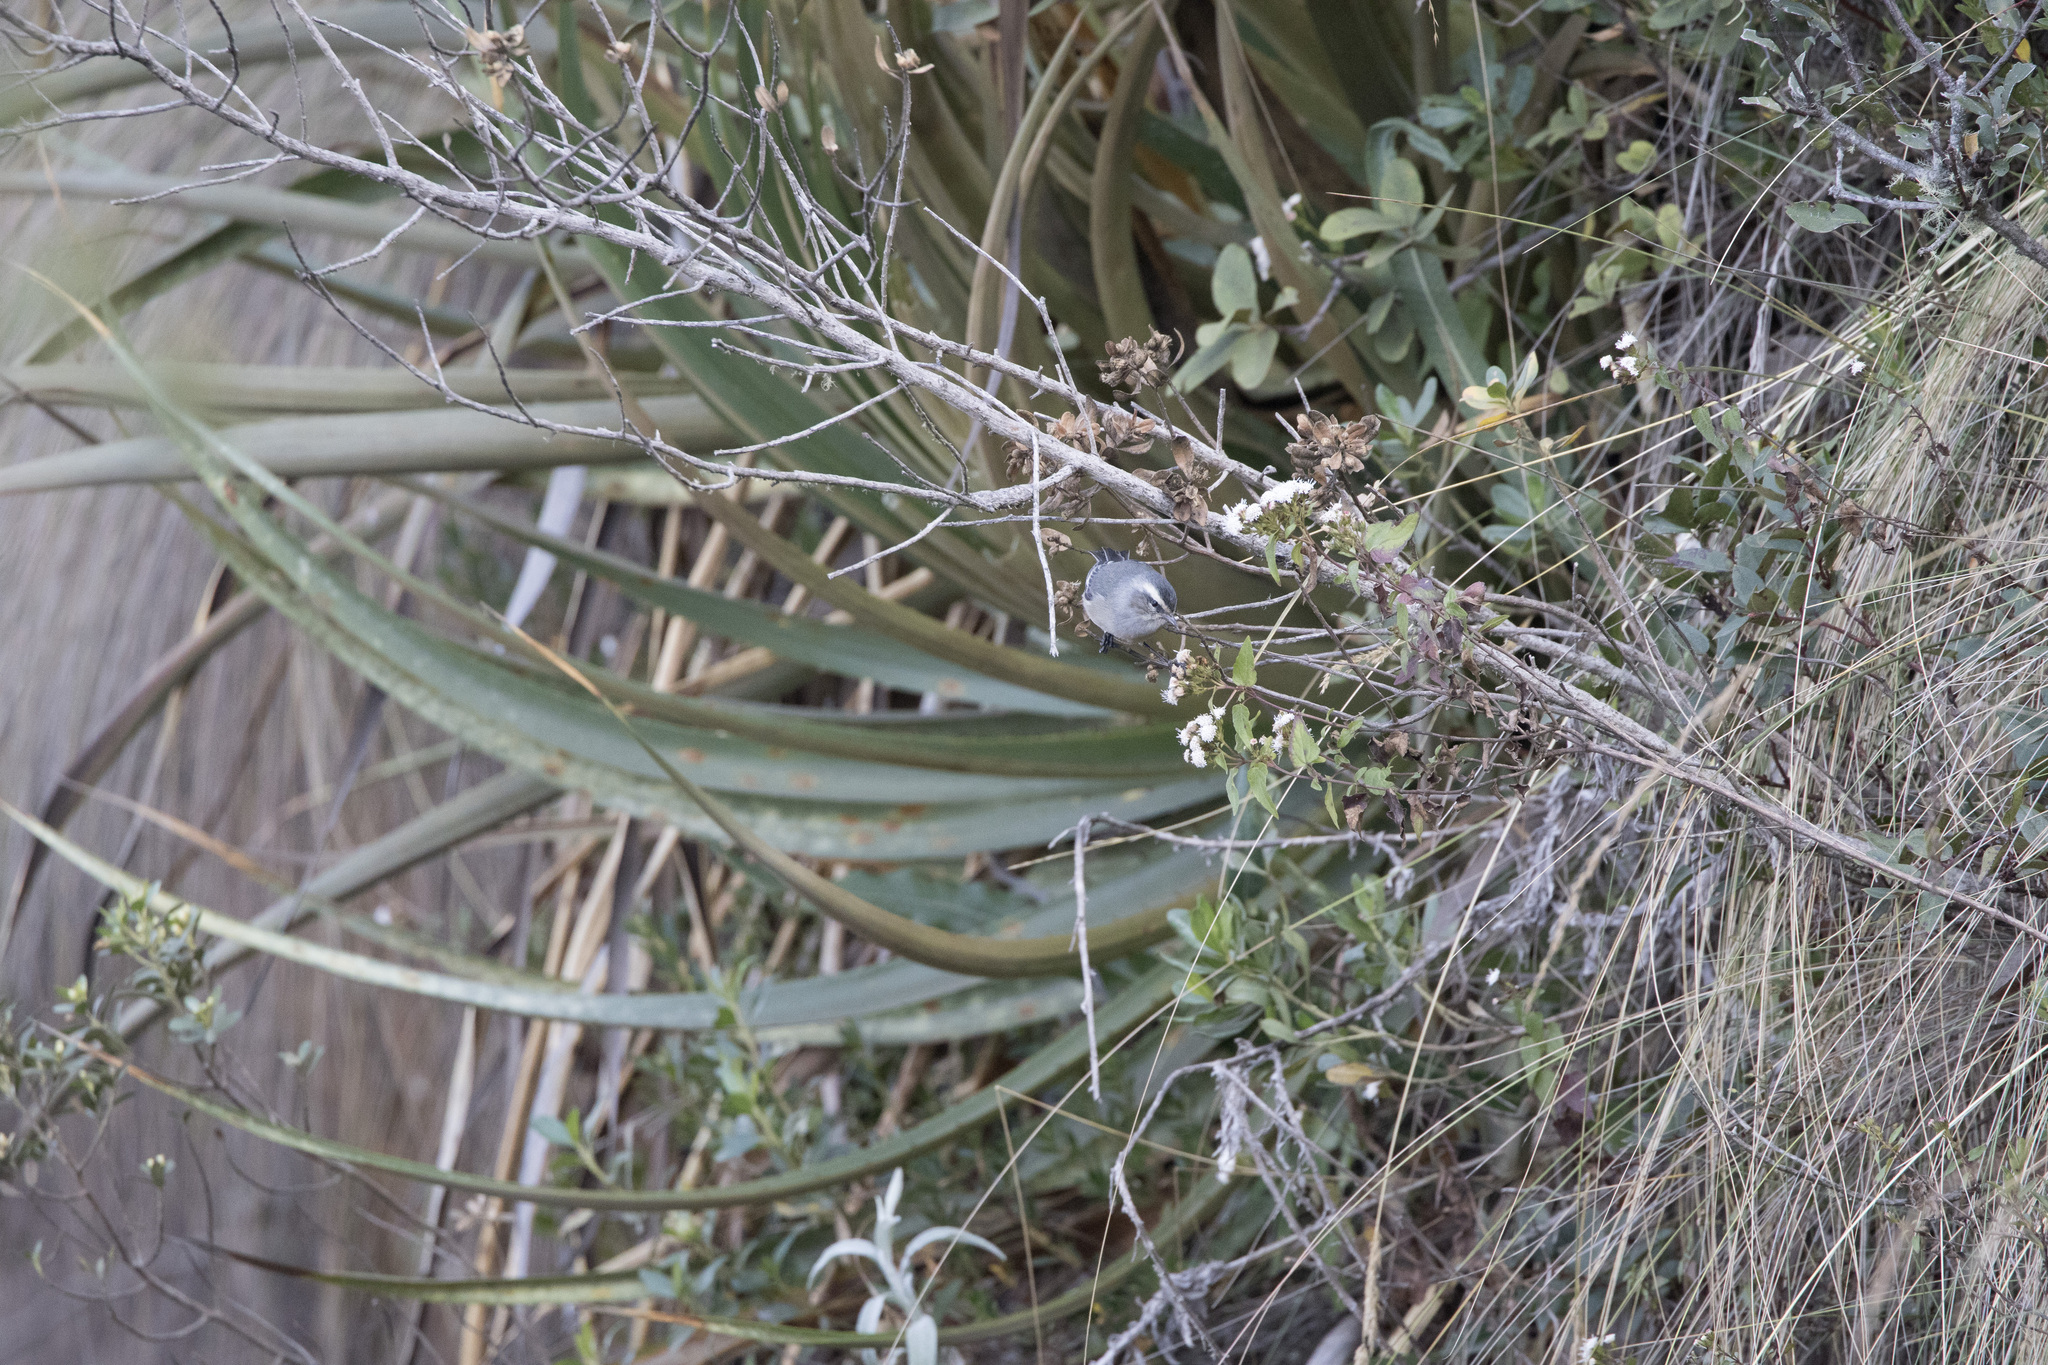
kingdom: Animalia
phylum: Chordata
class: Aves
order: Passeriformes
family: Thraupidae
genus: Conirostrum
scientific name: Conirostrum cinereum
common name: Cinereous conebill
